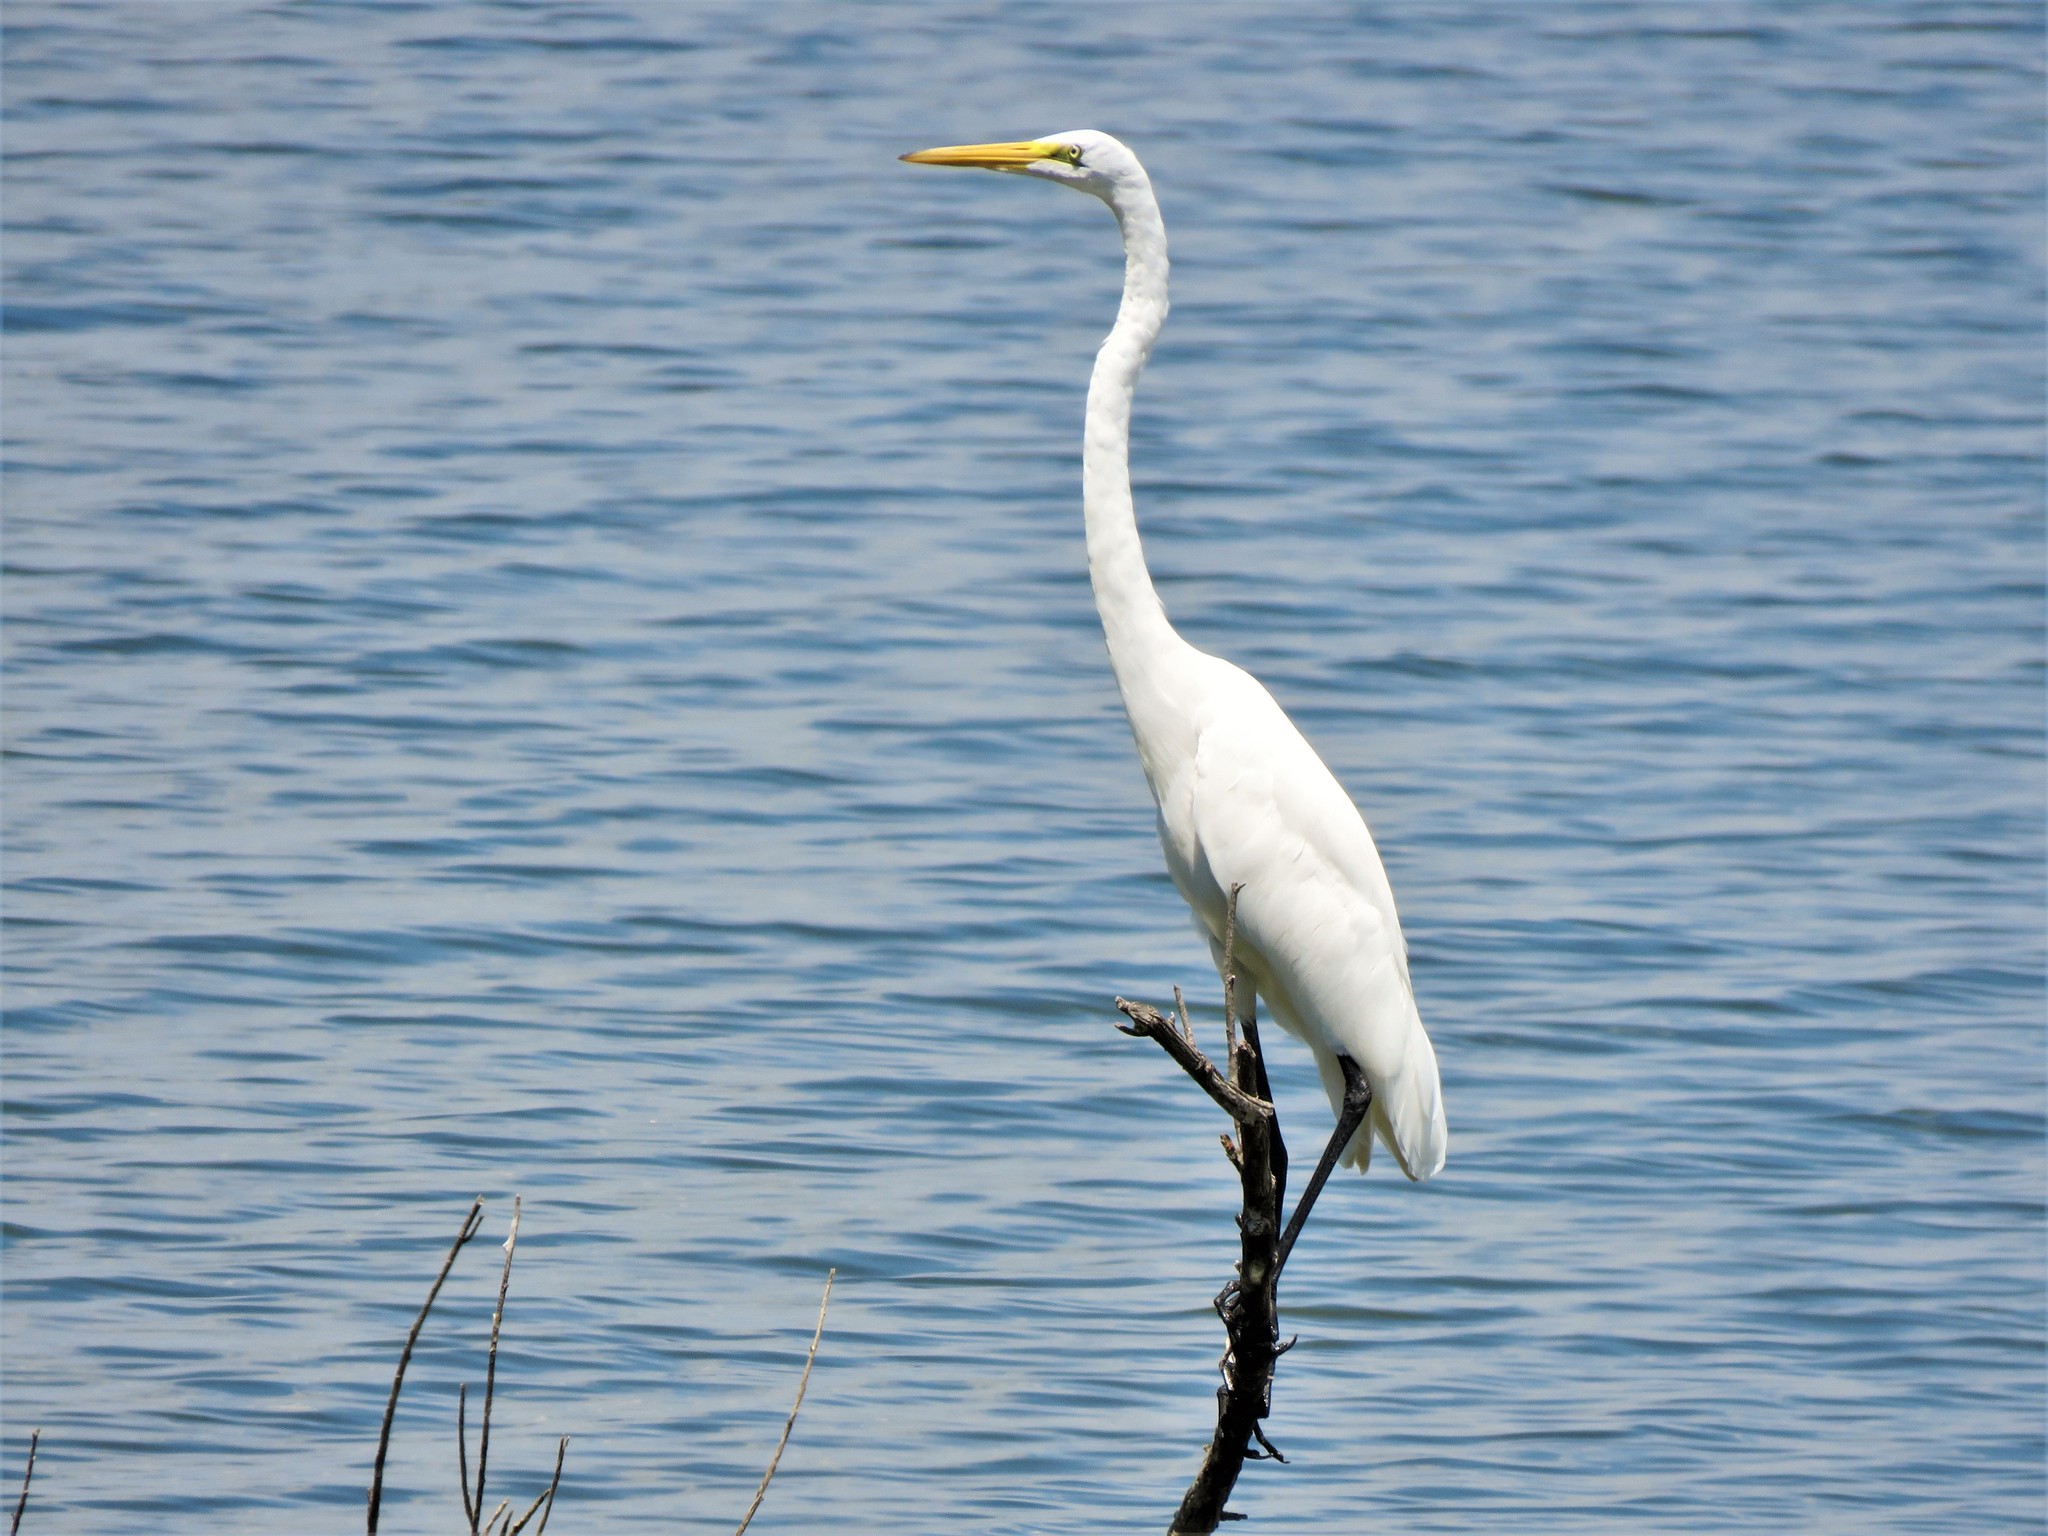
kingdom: Animalia
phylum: Chordata
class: Aves
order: Pelecaniformes
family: Ardeidae
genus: Ardea
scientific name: Ardea alba
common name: Great egret
